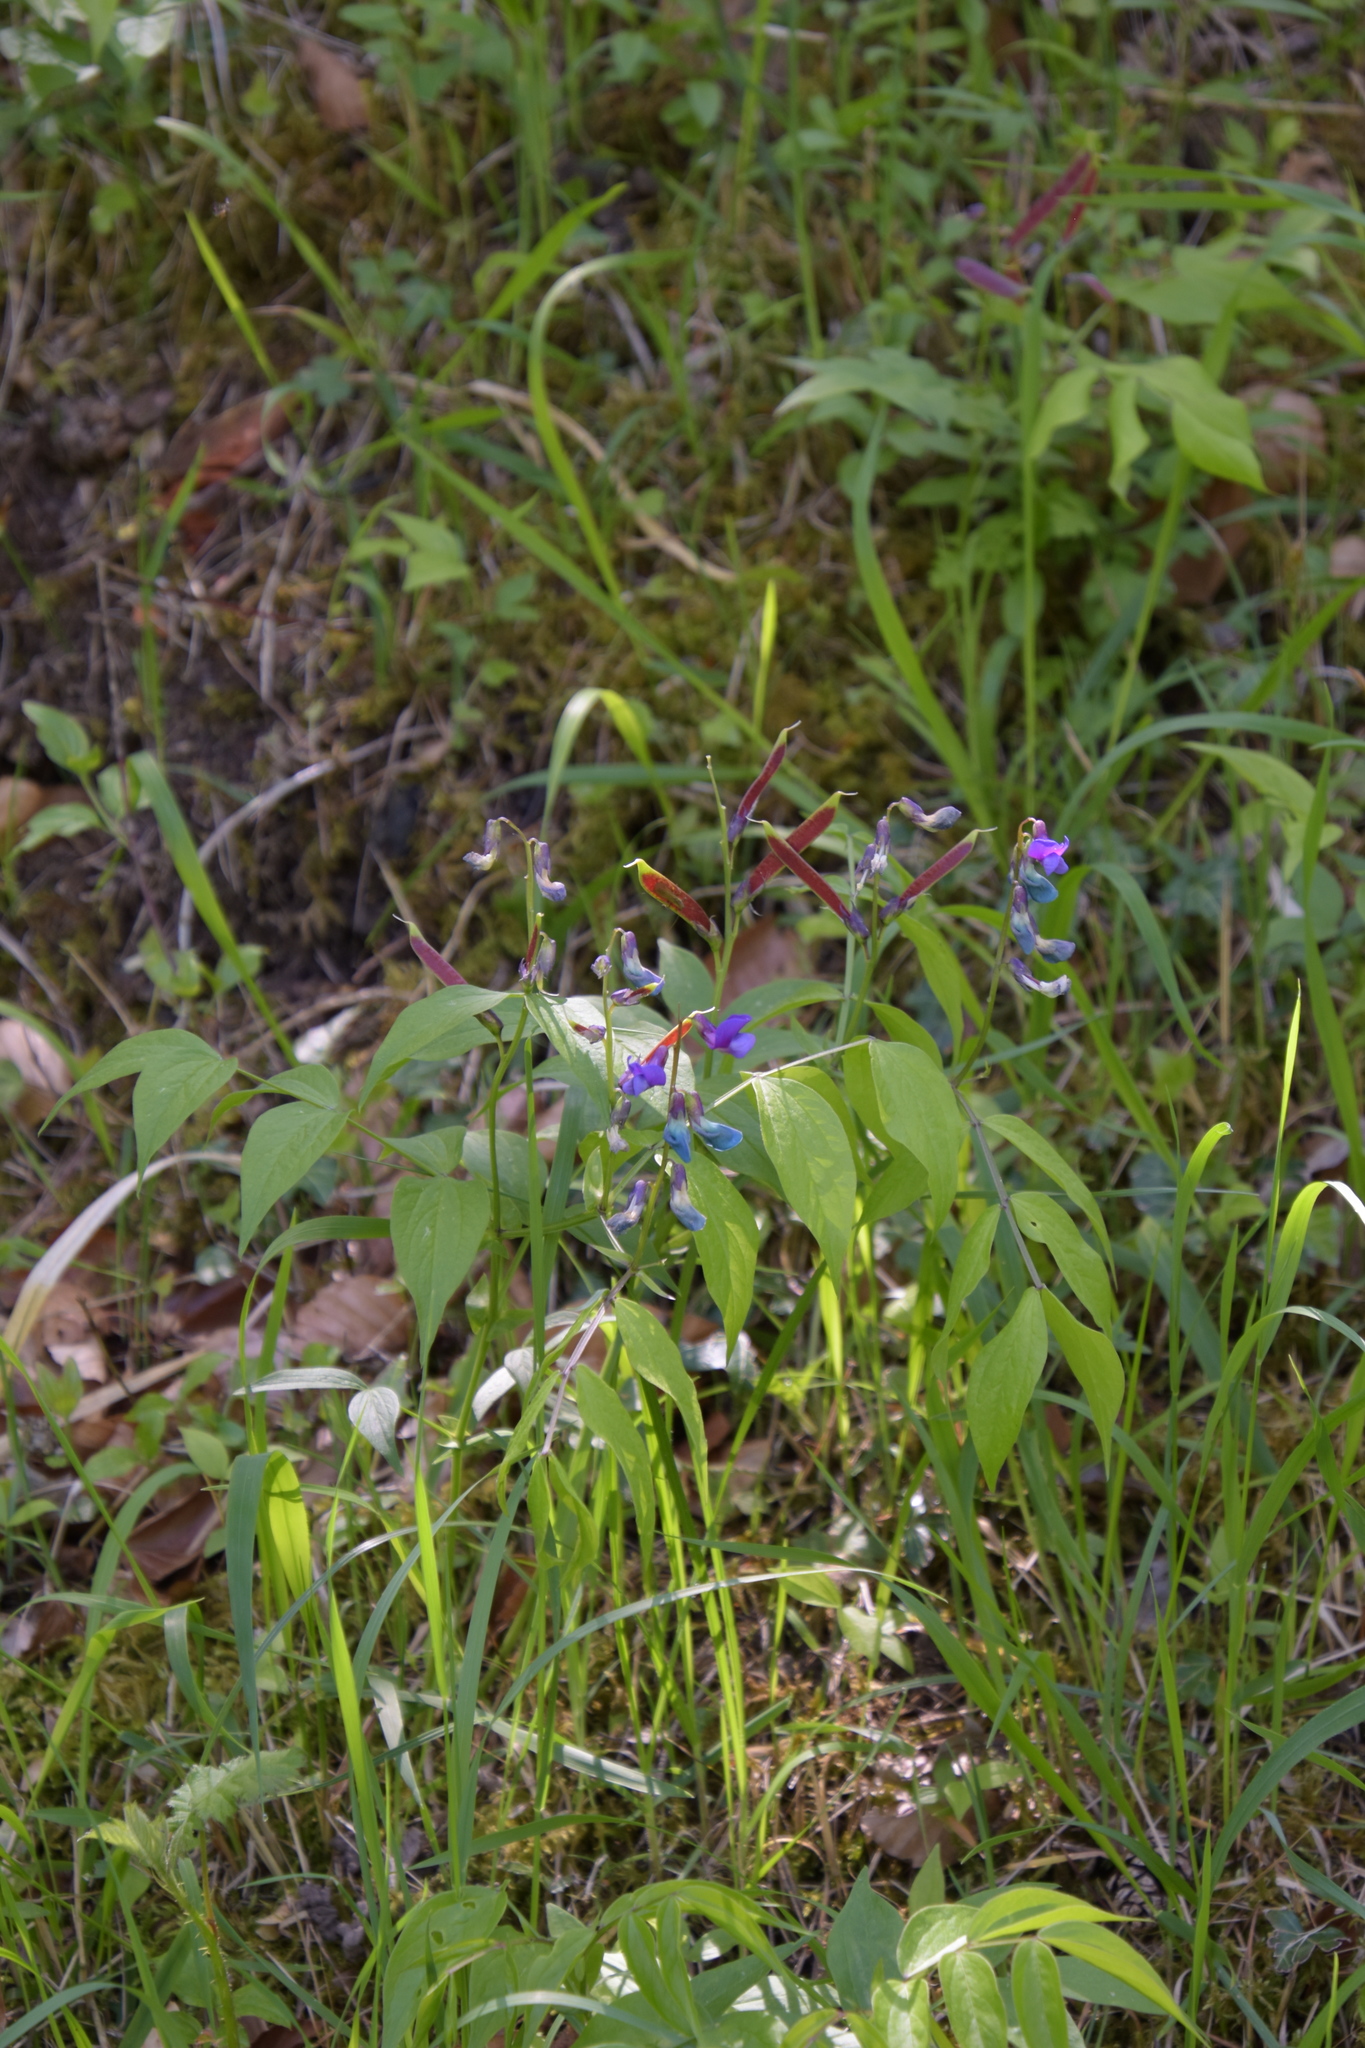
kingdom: Plantae
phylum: Tracheophyta
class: Magnoliopsida
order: Fabales
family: Fabaceae
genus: Lathyrus
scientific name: Lathyrus vernus
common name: Spring pea
